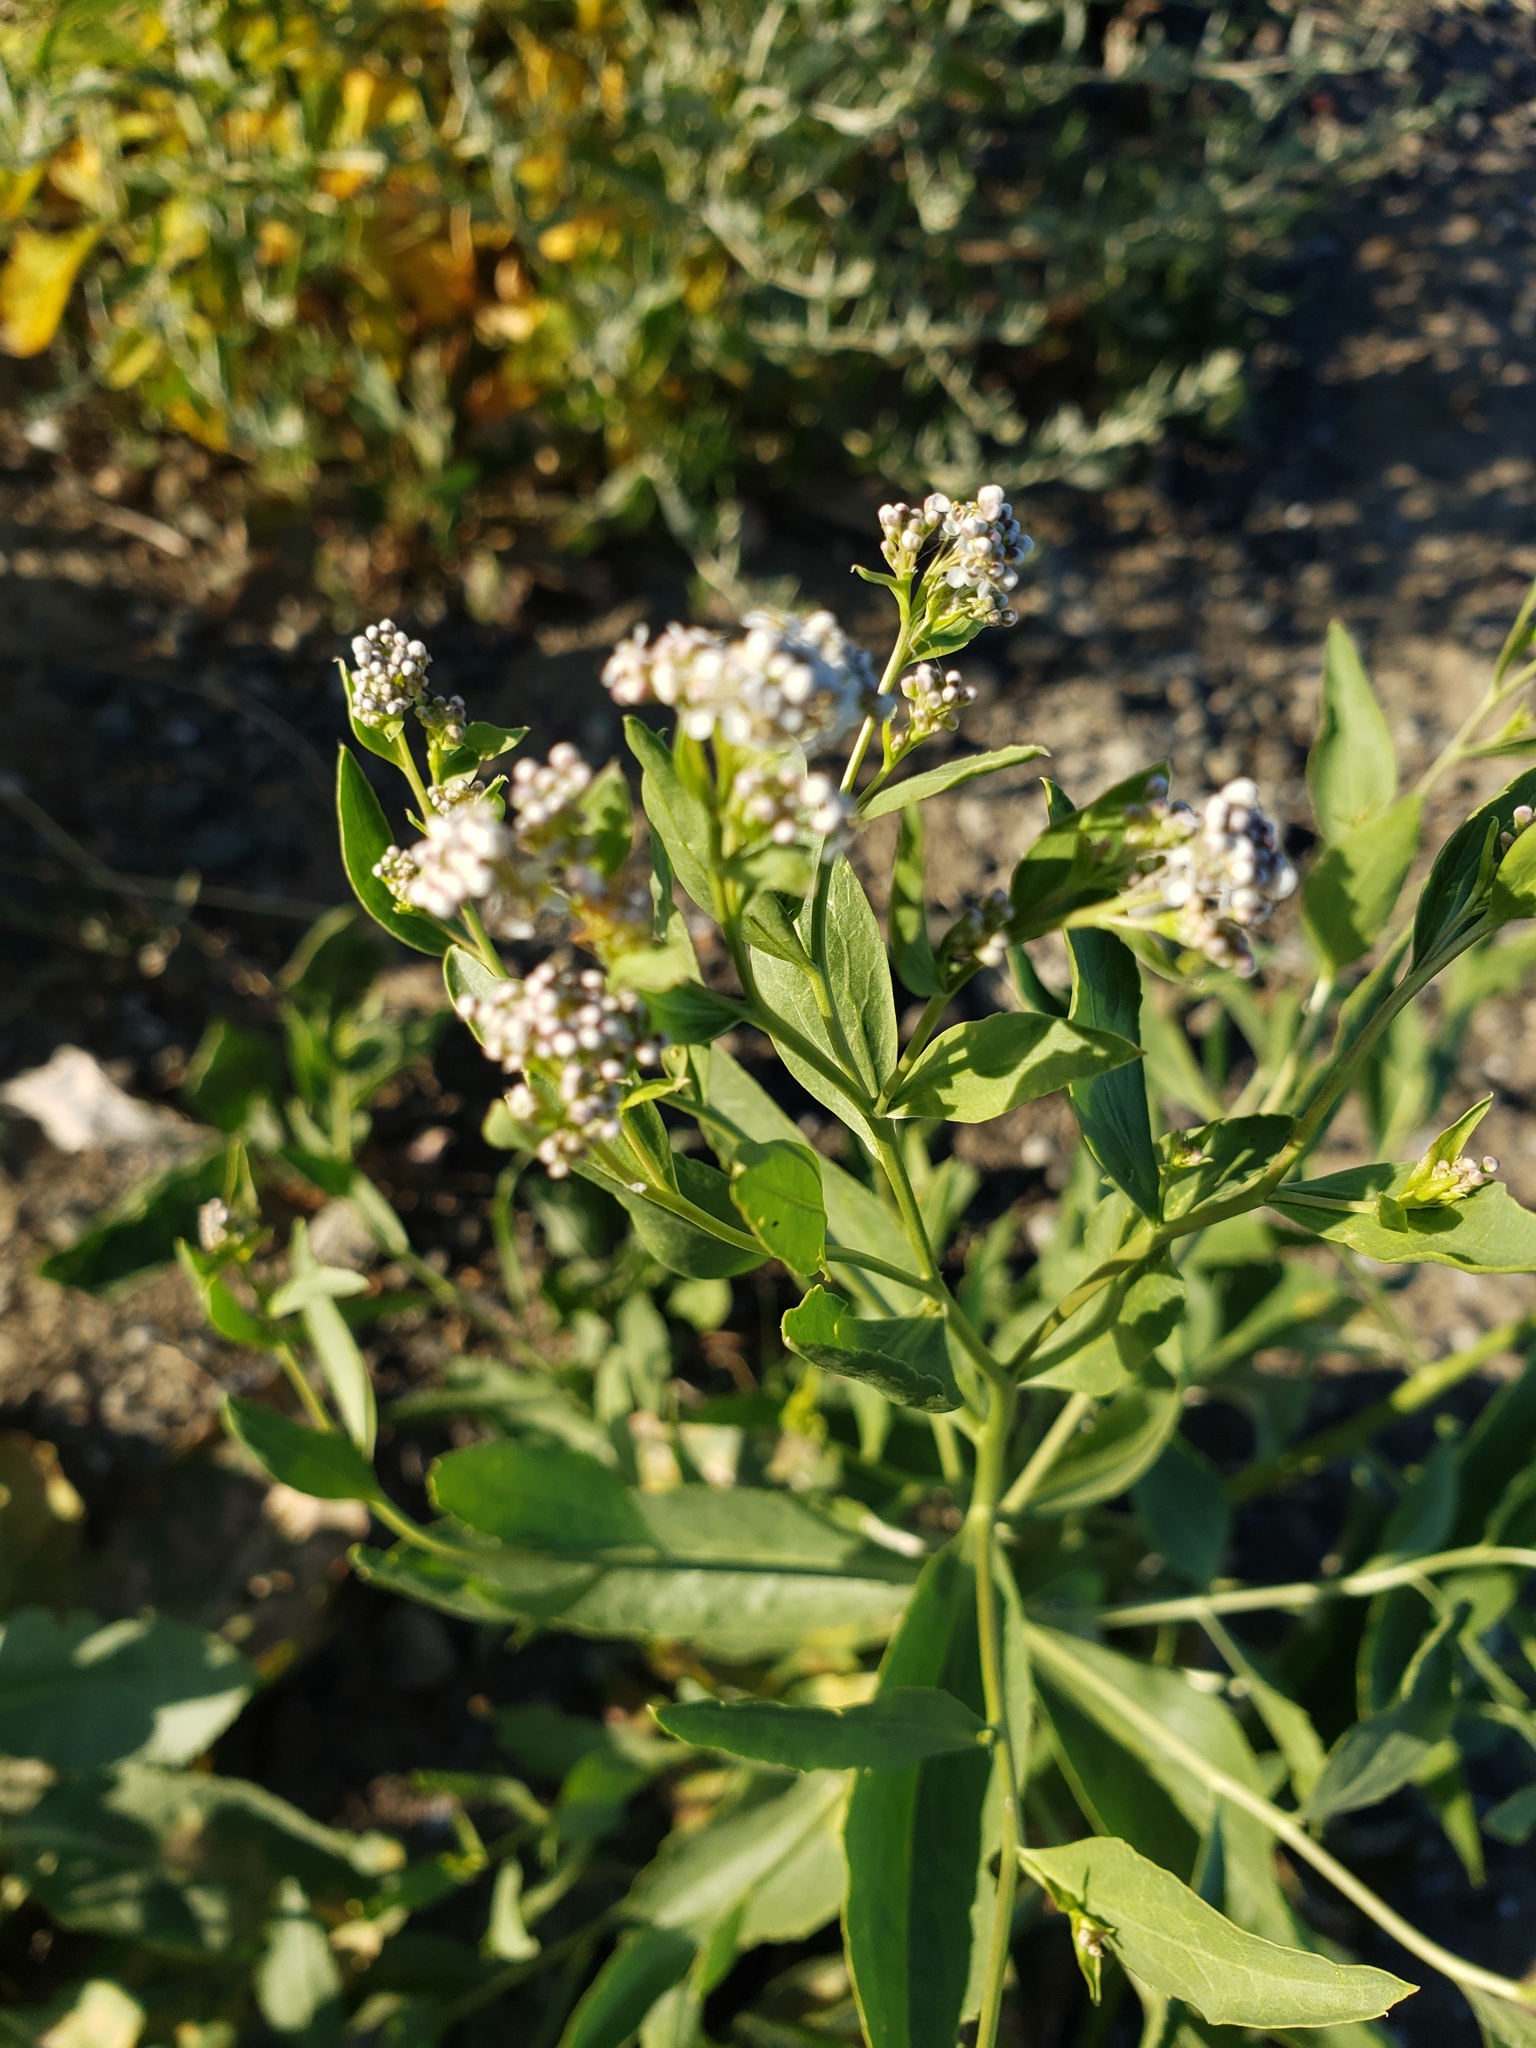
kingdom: Plantae
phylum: Tracheophyta
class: Magnoliopsida
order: Brassicales
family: Brassicaceae
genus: Lepidium
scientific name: Lepidium latifolium
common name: Dittander
